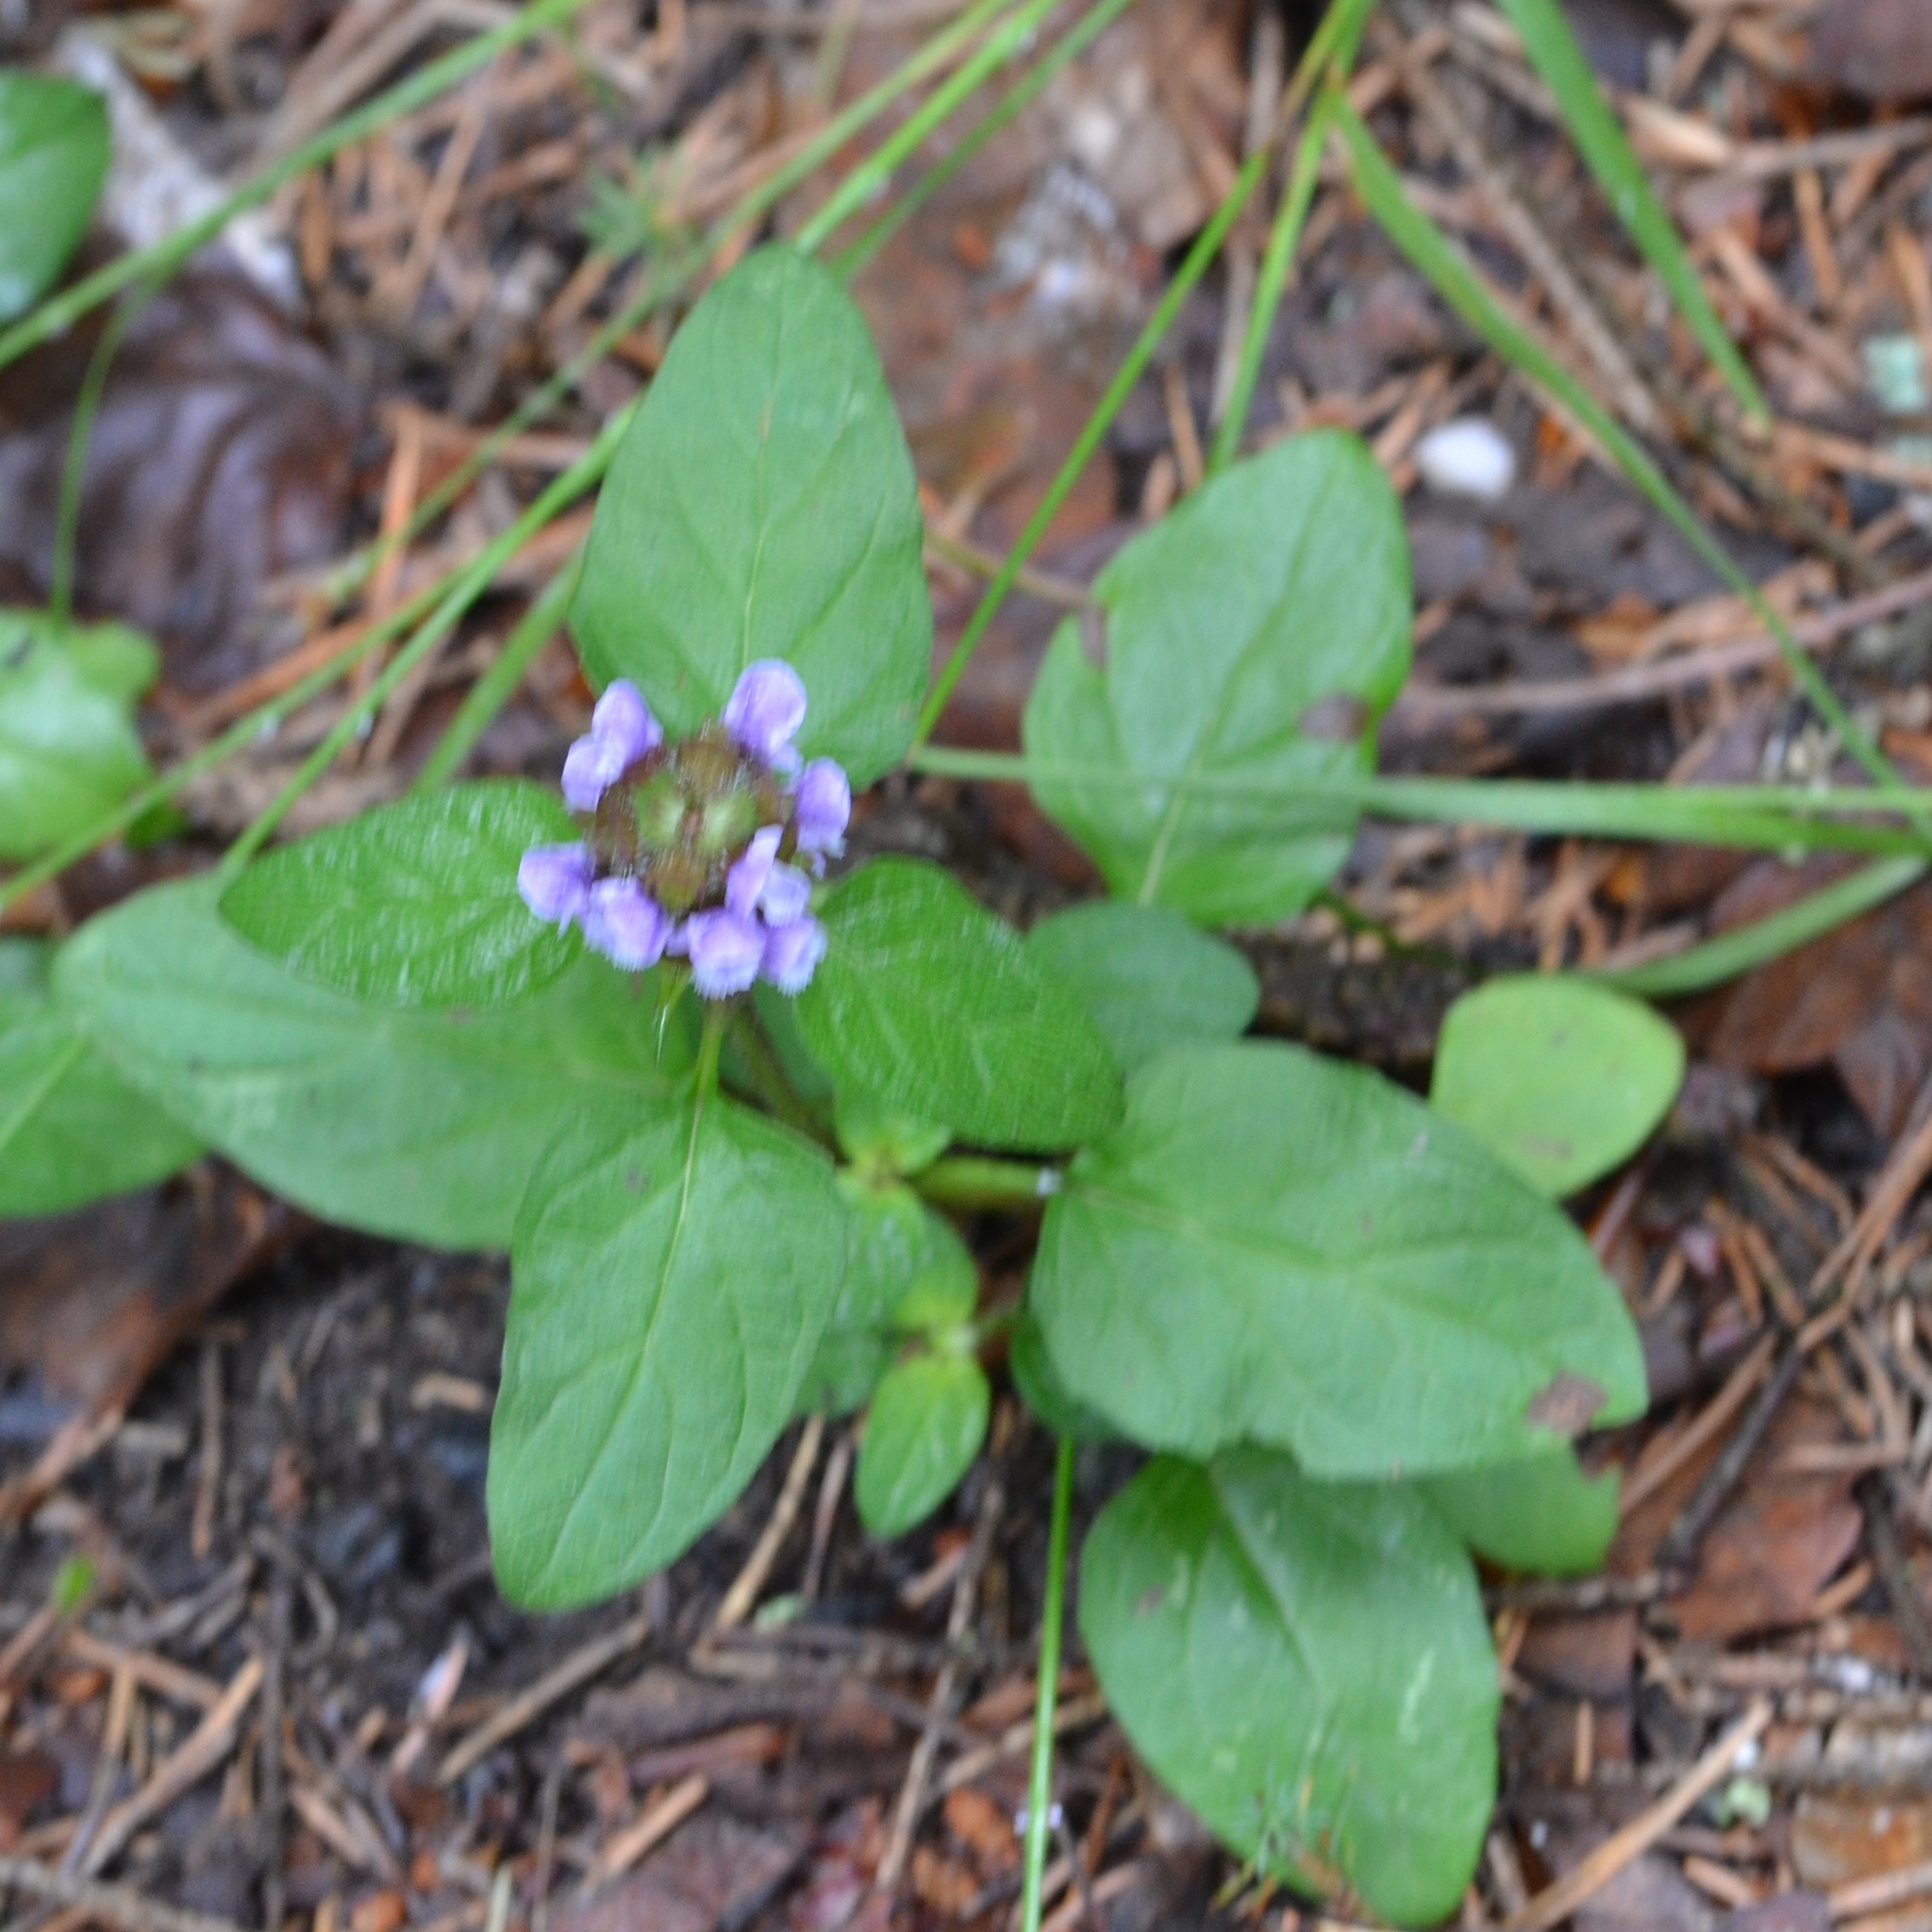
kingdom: Plantae
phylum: Tracheophyta
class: Magnoliopsida
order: Lamiales
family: Lamiaceae
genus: Prunella
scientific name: Prunella vulgaris
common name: Heal-all
